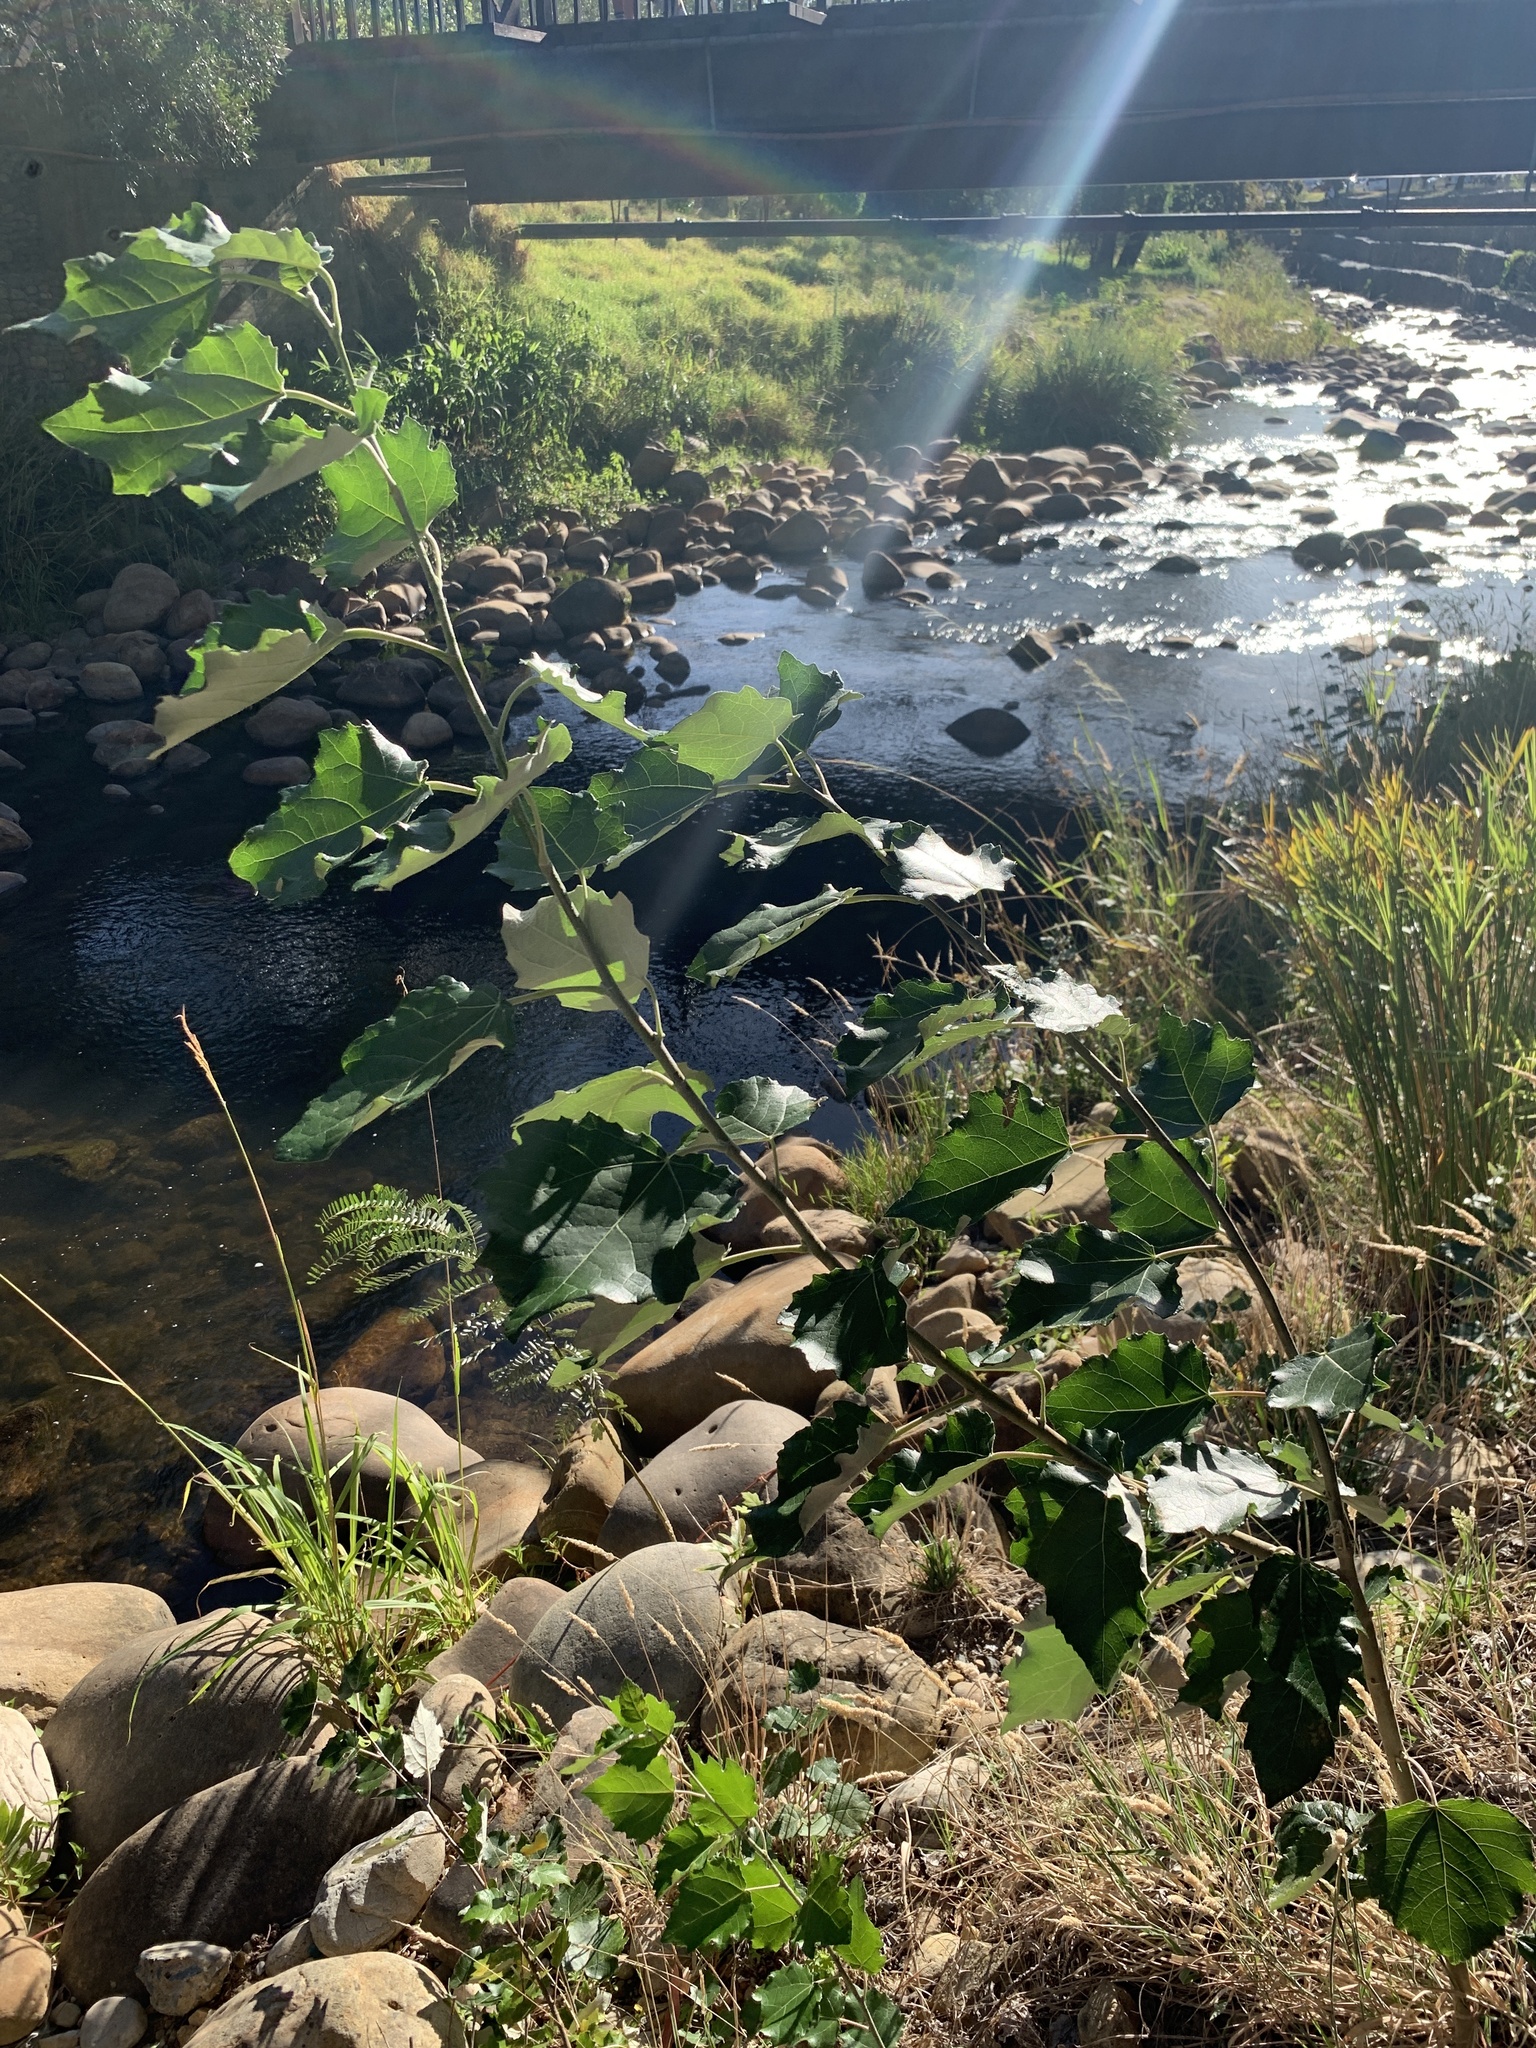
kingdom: Plantae
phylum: Tracheophyta
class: Magnoliopsida
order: Malpighiales
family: Salicaceae
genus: Populus
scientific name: Populus canescens
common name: Gray poplar
